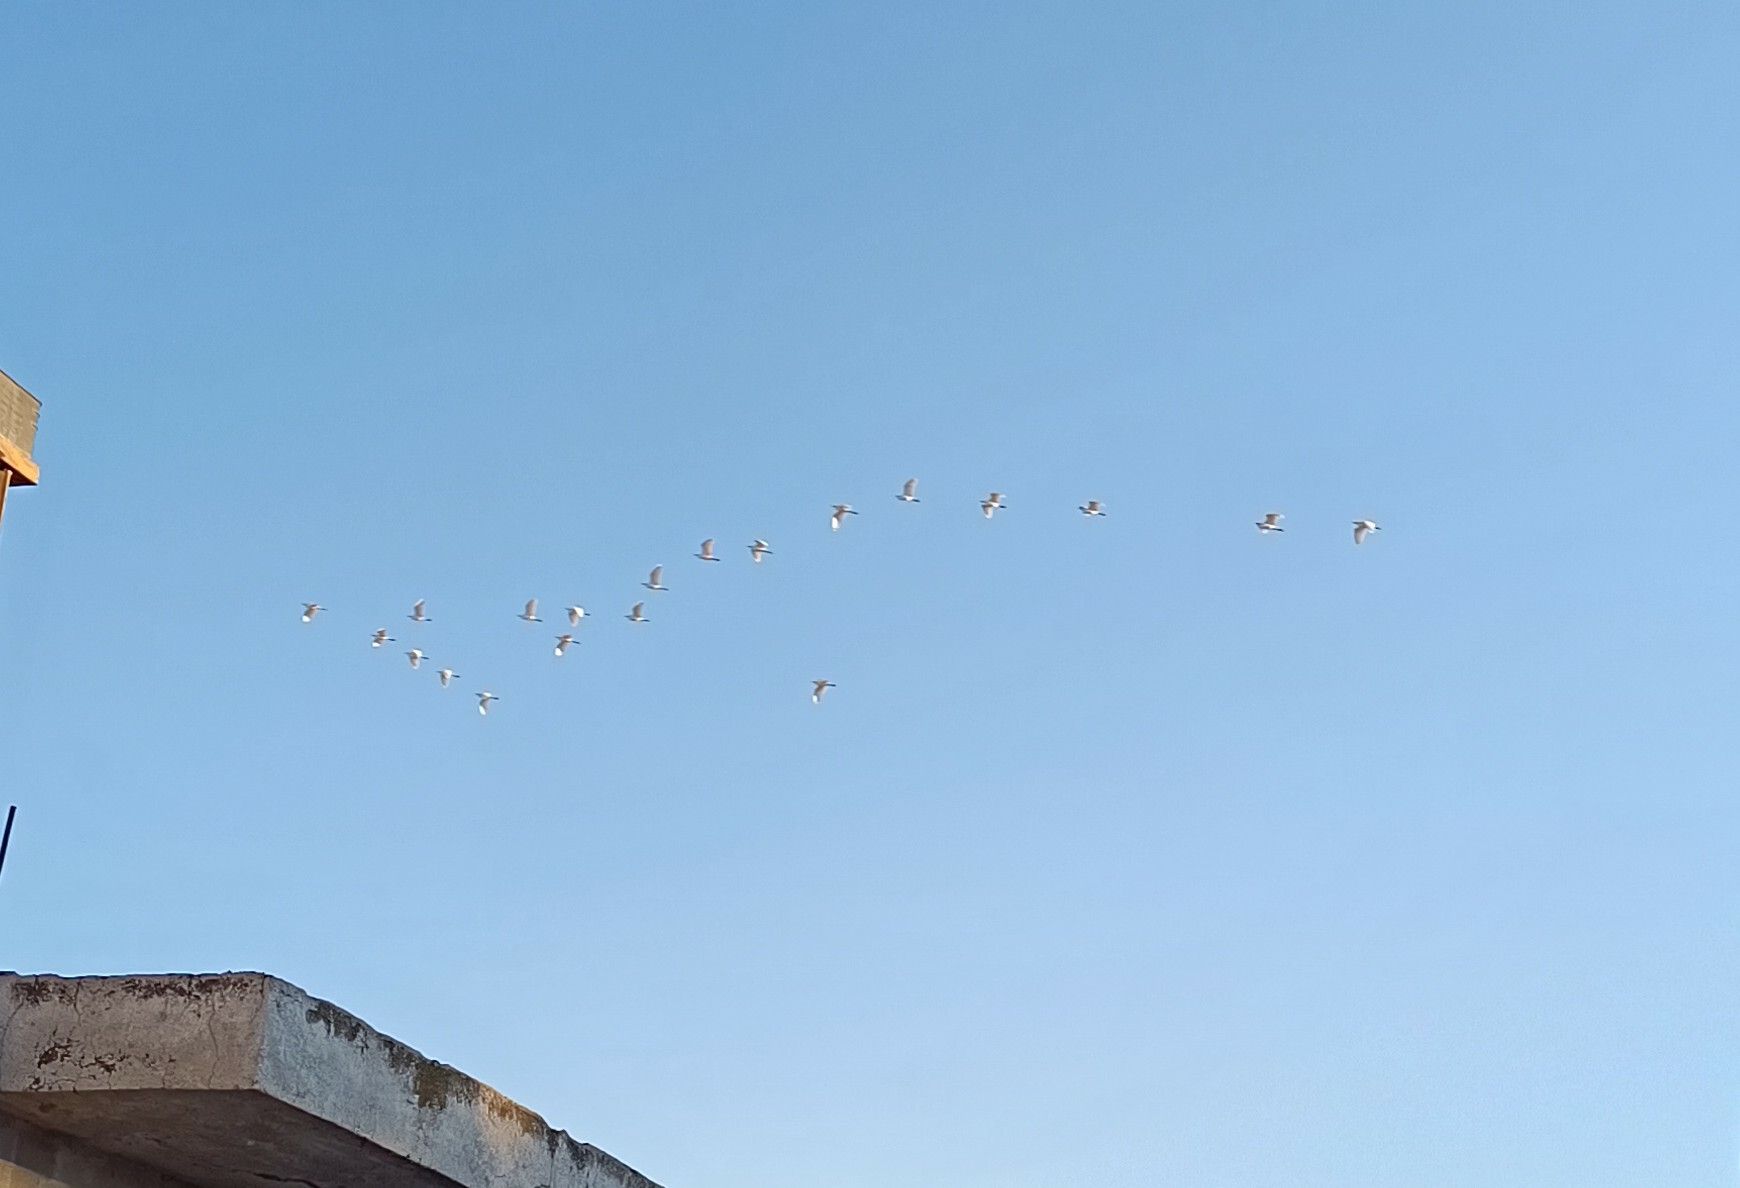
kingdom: Animalia
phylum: Chordata
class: Aves
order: Pelecaniformes
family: Ardeidae
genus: Bubulcus
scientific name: Bubulcus ibis
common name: Cattle egret
